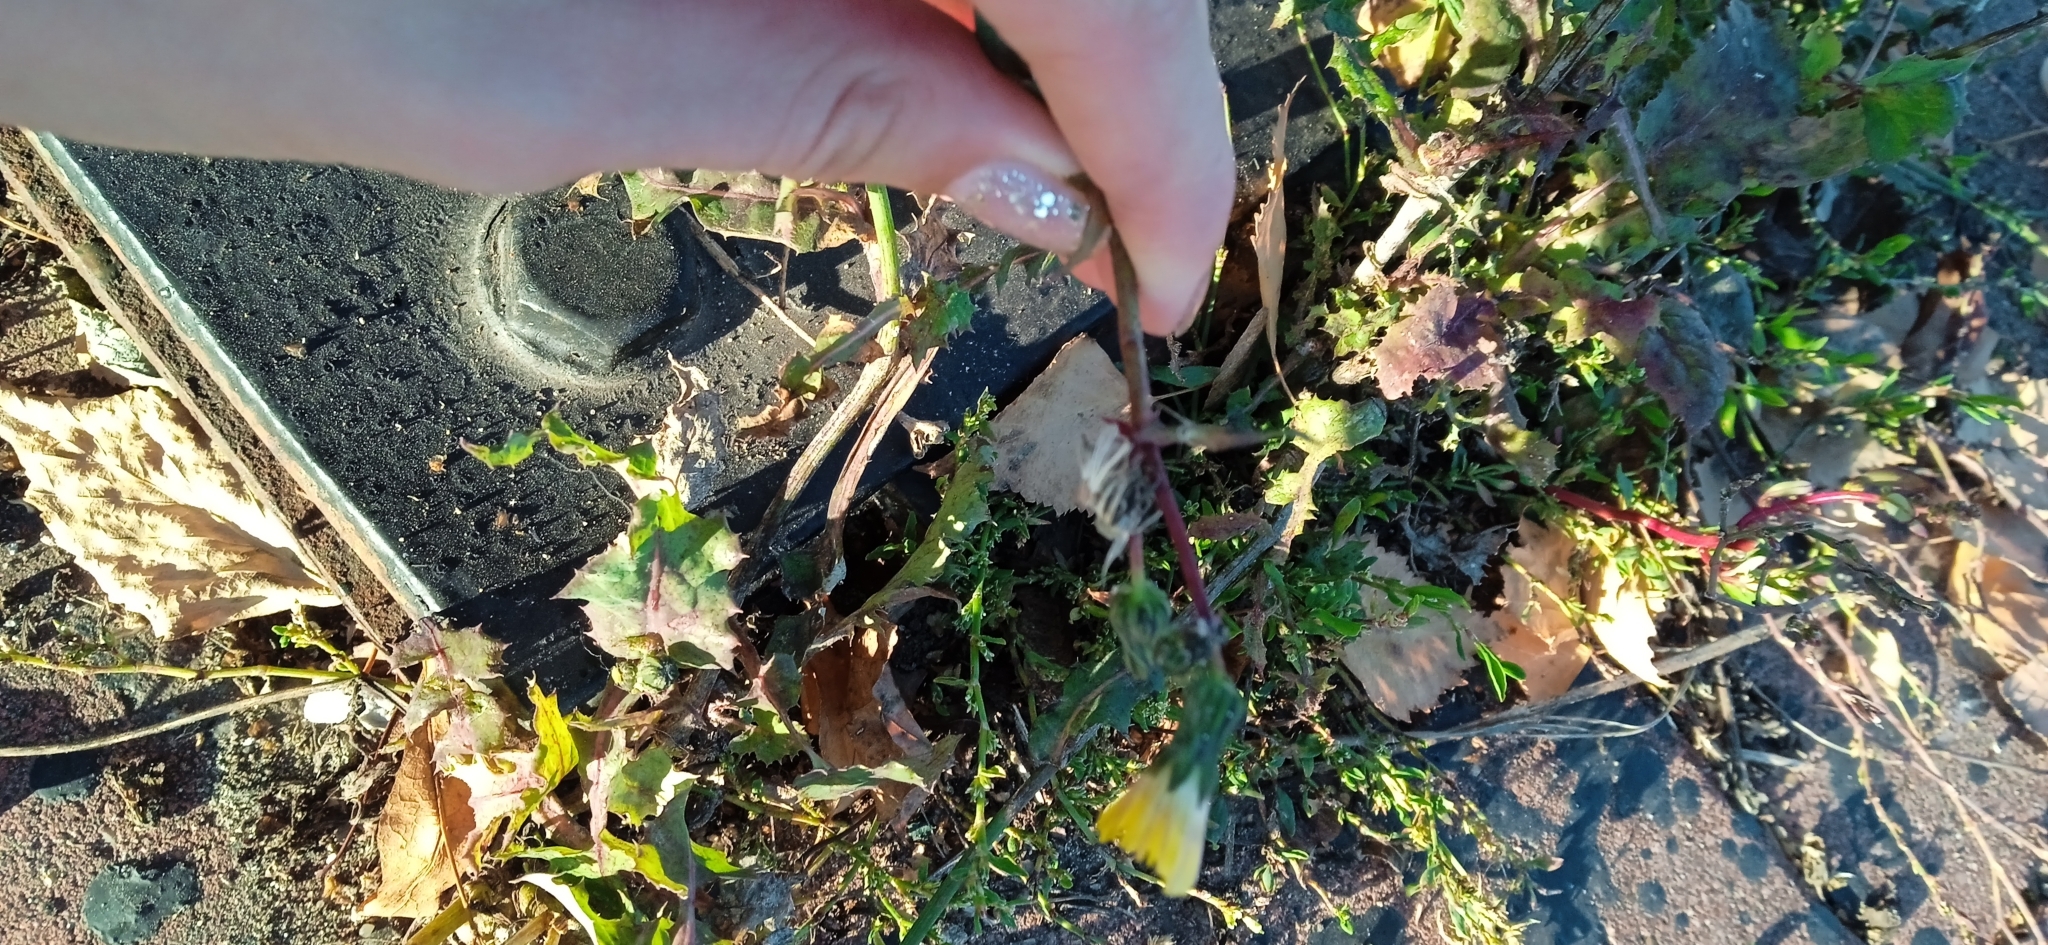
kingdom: Plantae
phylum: Tracheophyta
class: Magnoliopsida
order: Asterales
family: Asteraceae
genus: Sonchus
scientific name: Sonchus oleraceus
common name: Common sowthistle
